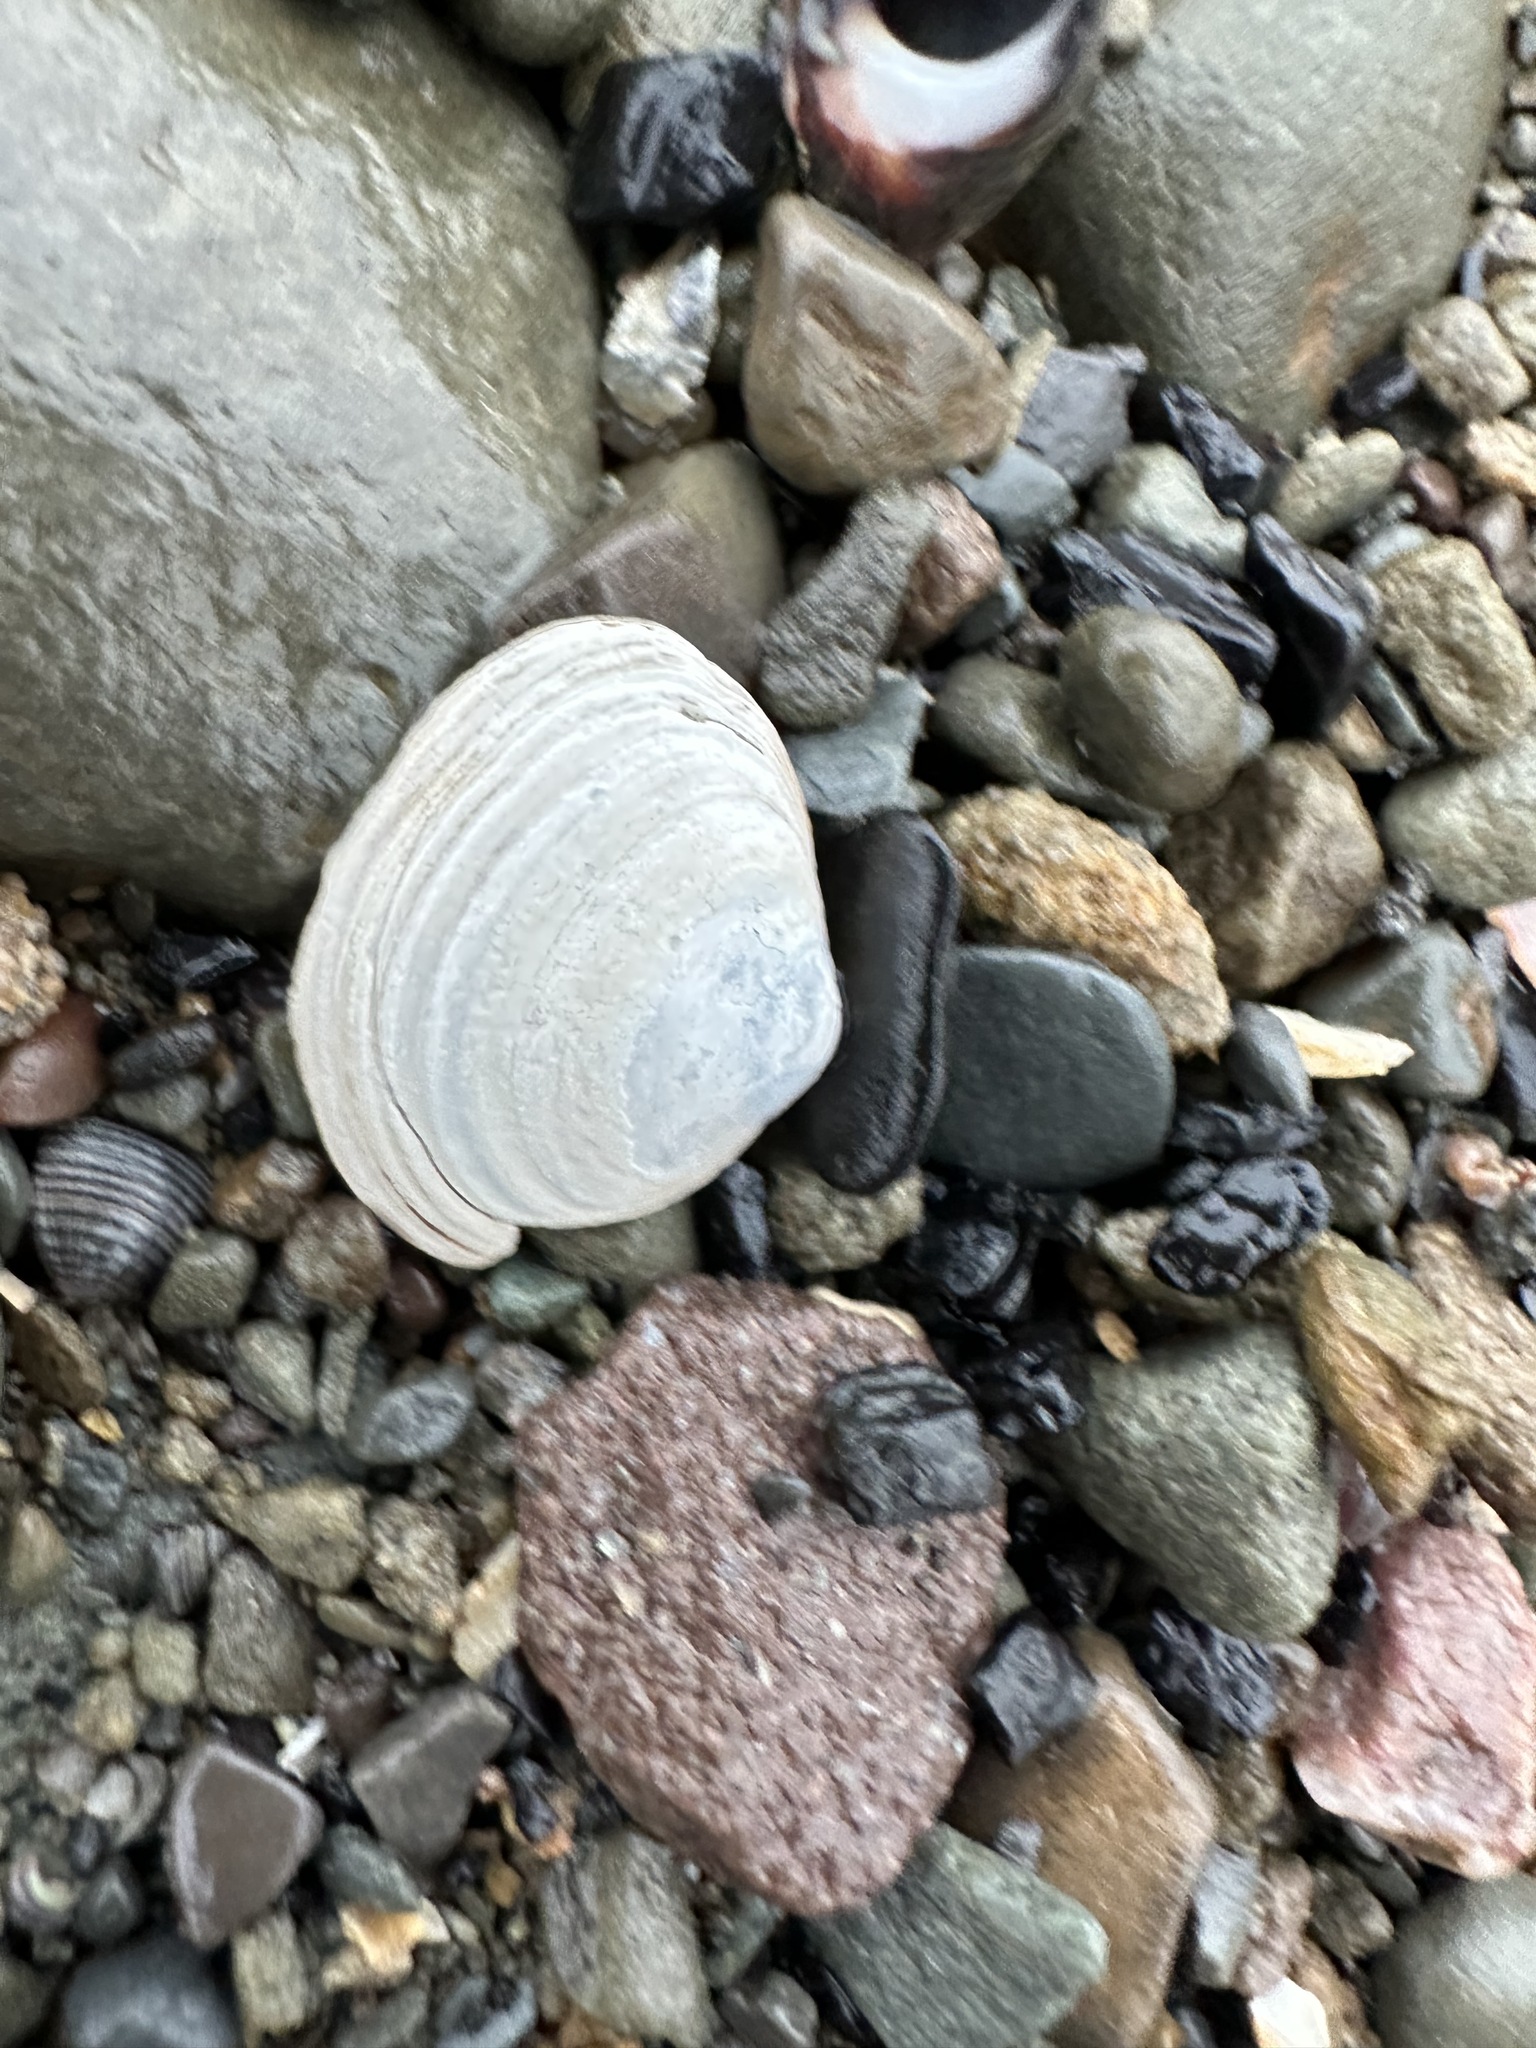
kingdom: Animalia
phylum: Mollusca
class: Bivalvia
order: Cardiida
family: Tellinidae
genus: Macoma
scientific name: Macoma petalum
